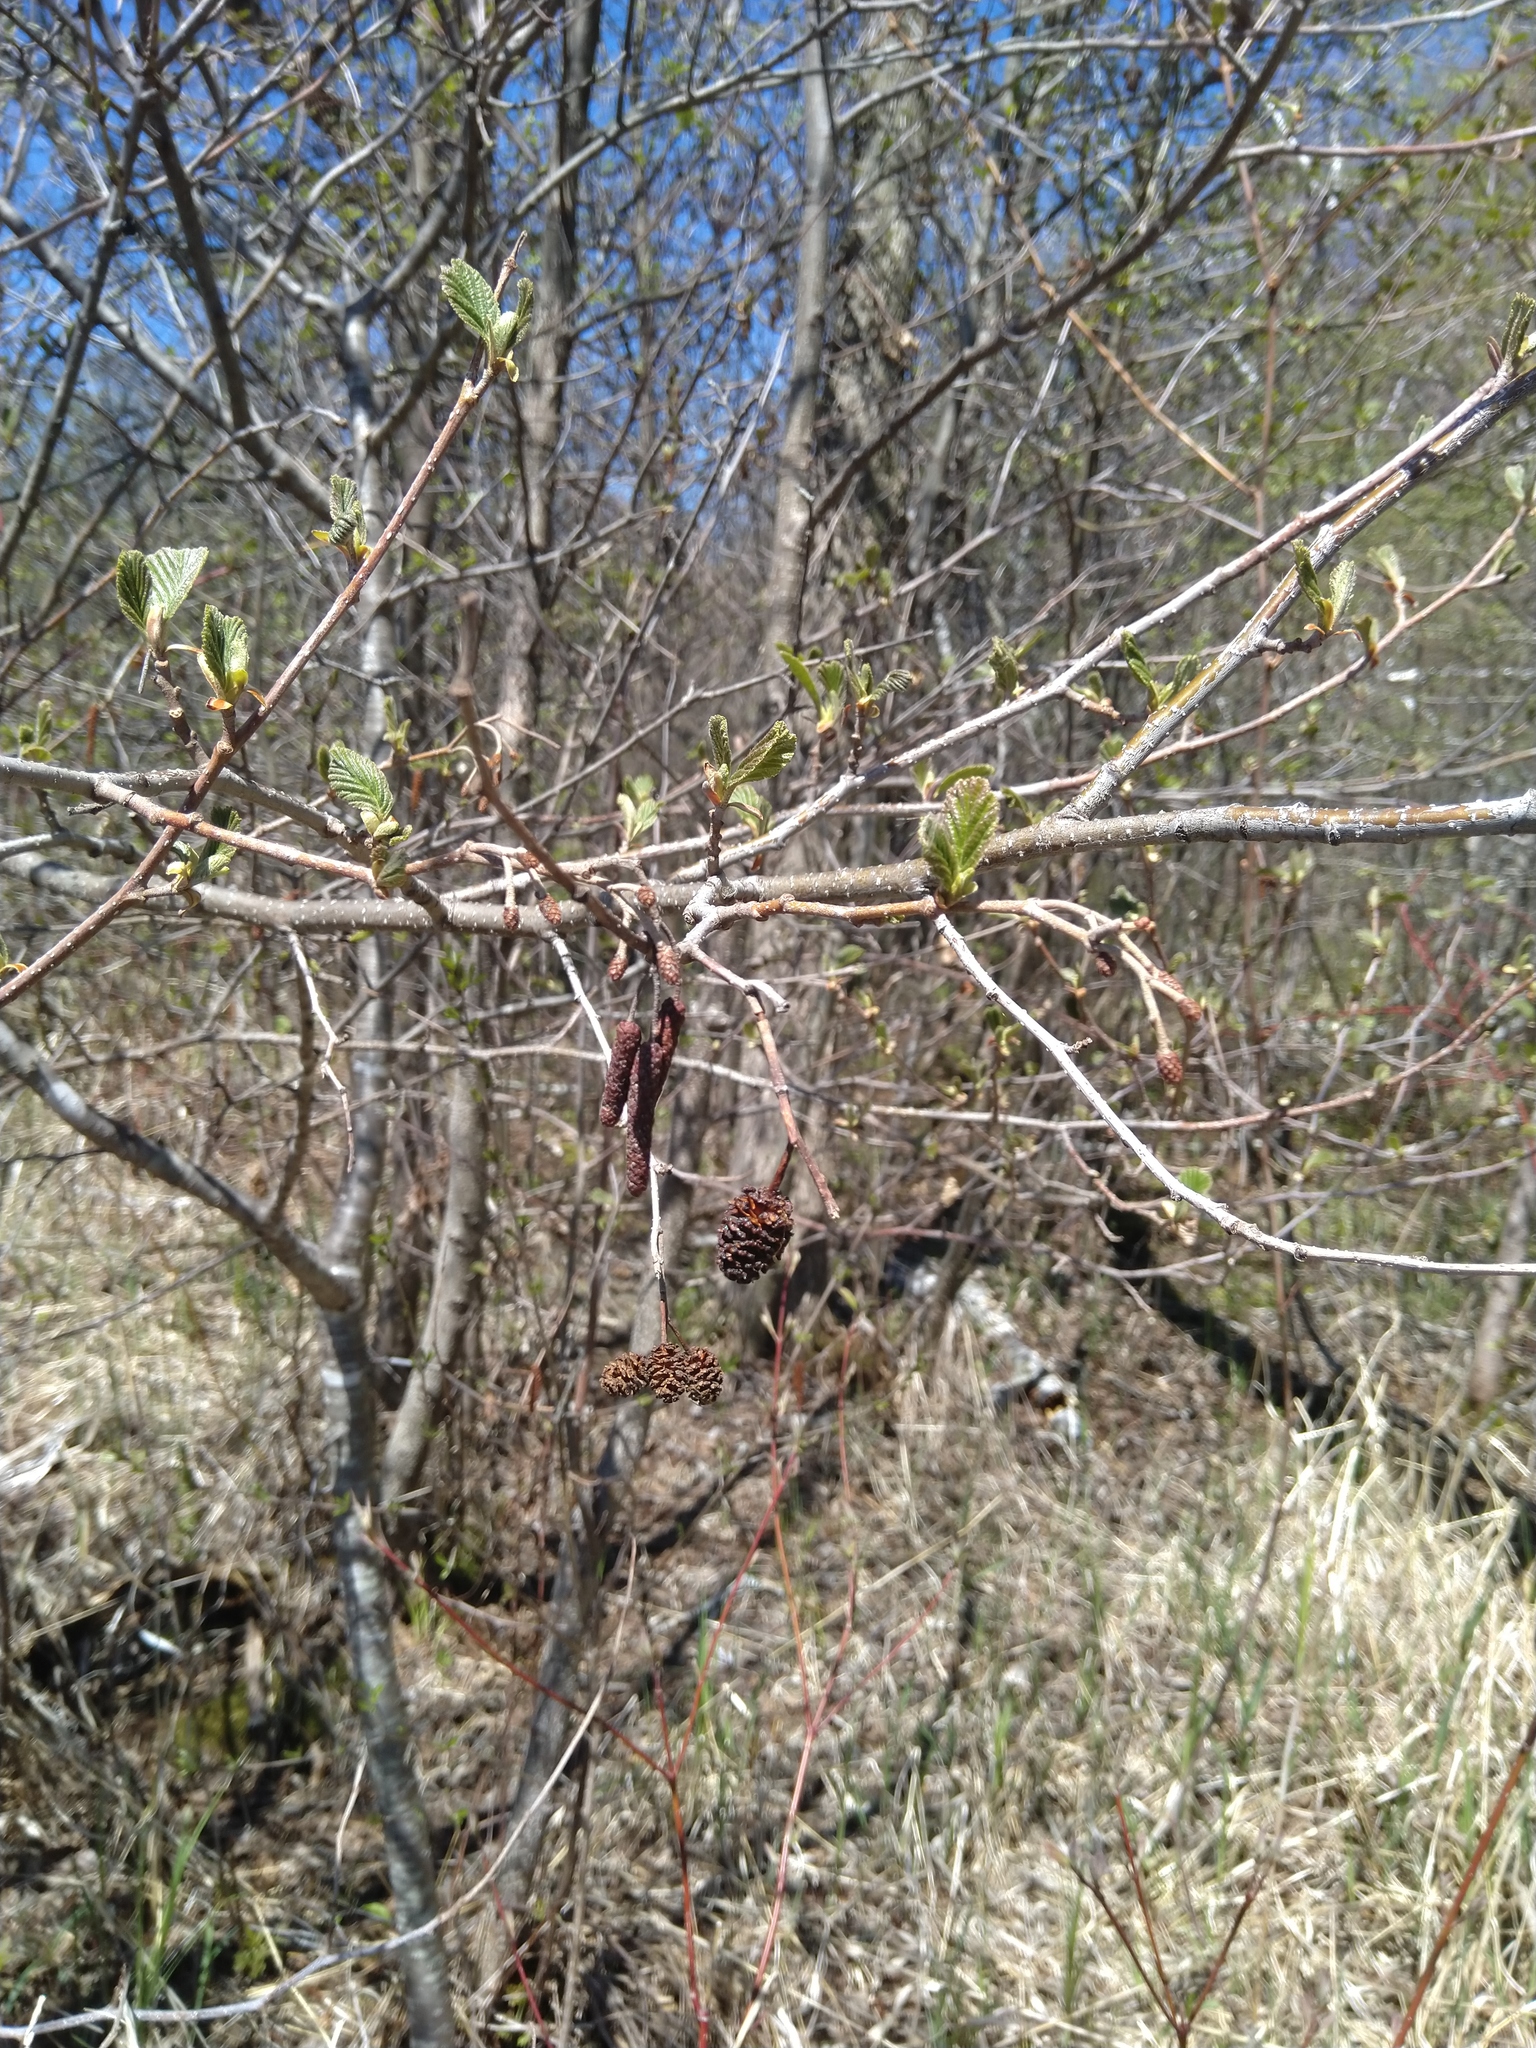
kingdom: Plantae
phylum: Tracheophyta
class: Magnoliopsida
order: Fagales
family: Betulaceae
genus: Alnus
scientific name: Alnus incana
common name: Grey alder
